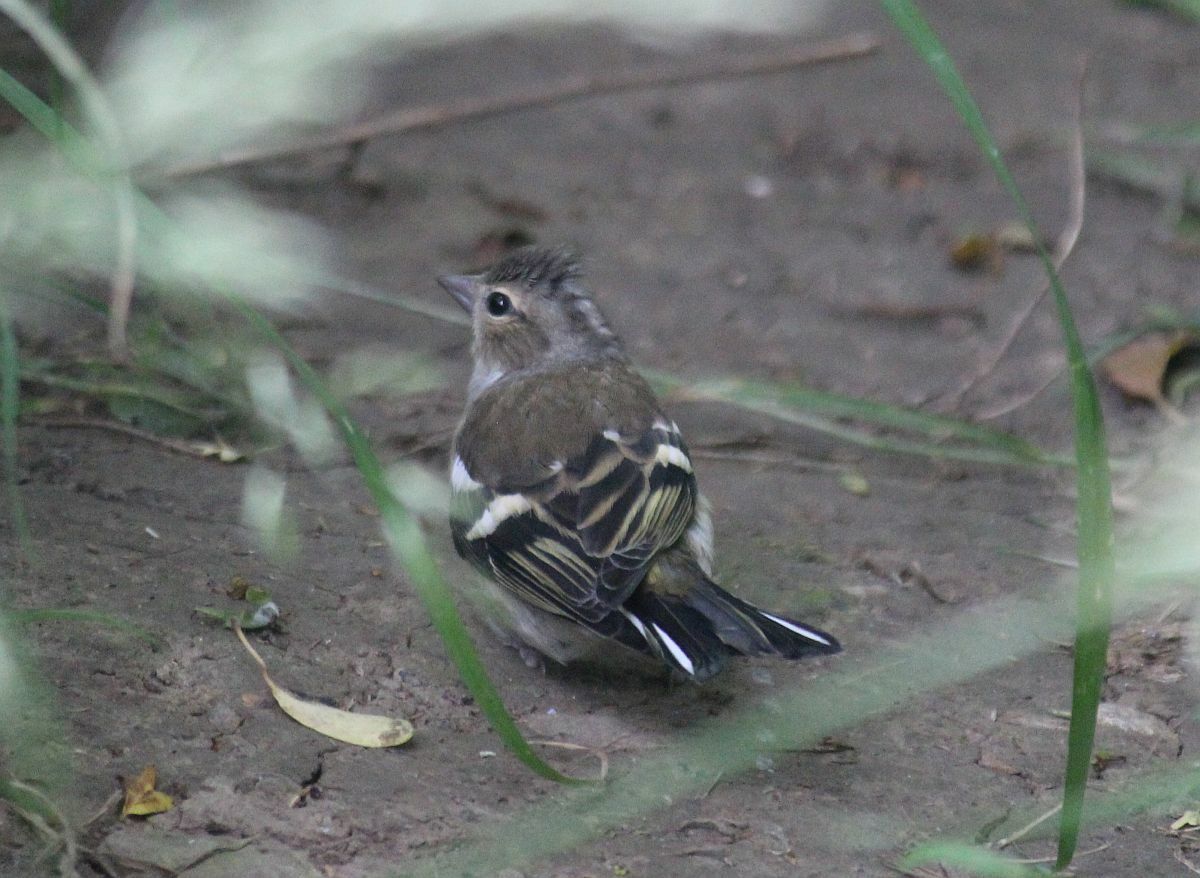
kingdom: Animalia
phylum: Chordata
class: Aves
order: Passeriformes
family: Fringillidae
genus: Fringilla
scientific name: Fringilla coelebs
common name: Common chaffinch
